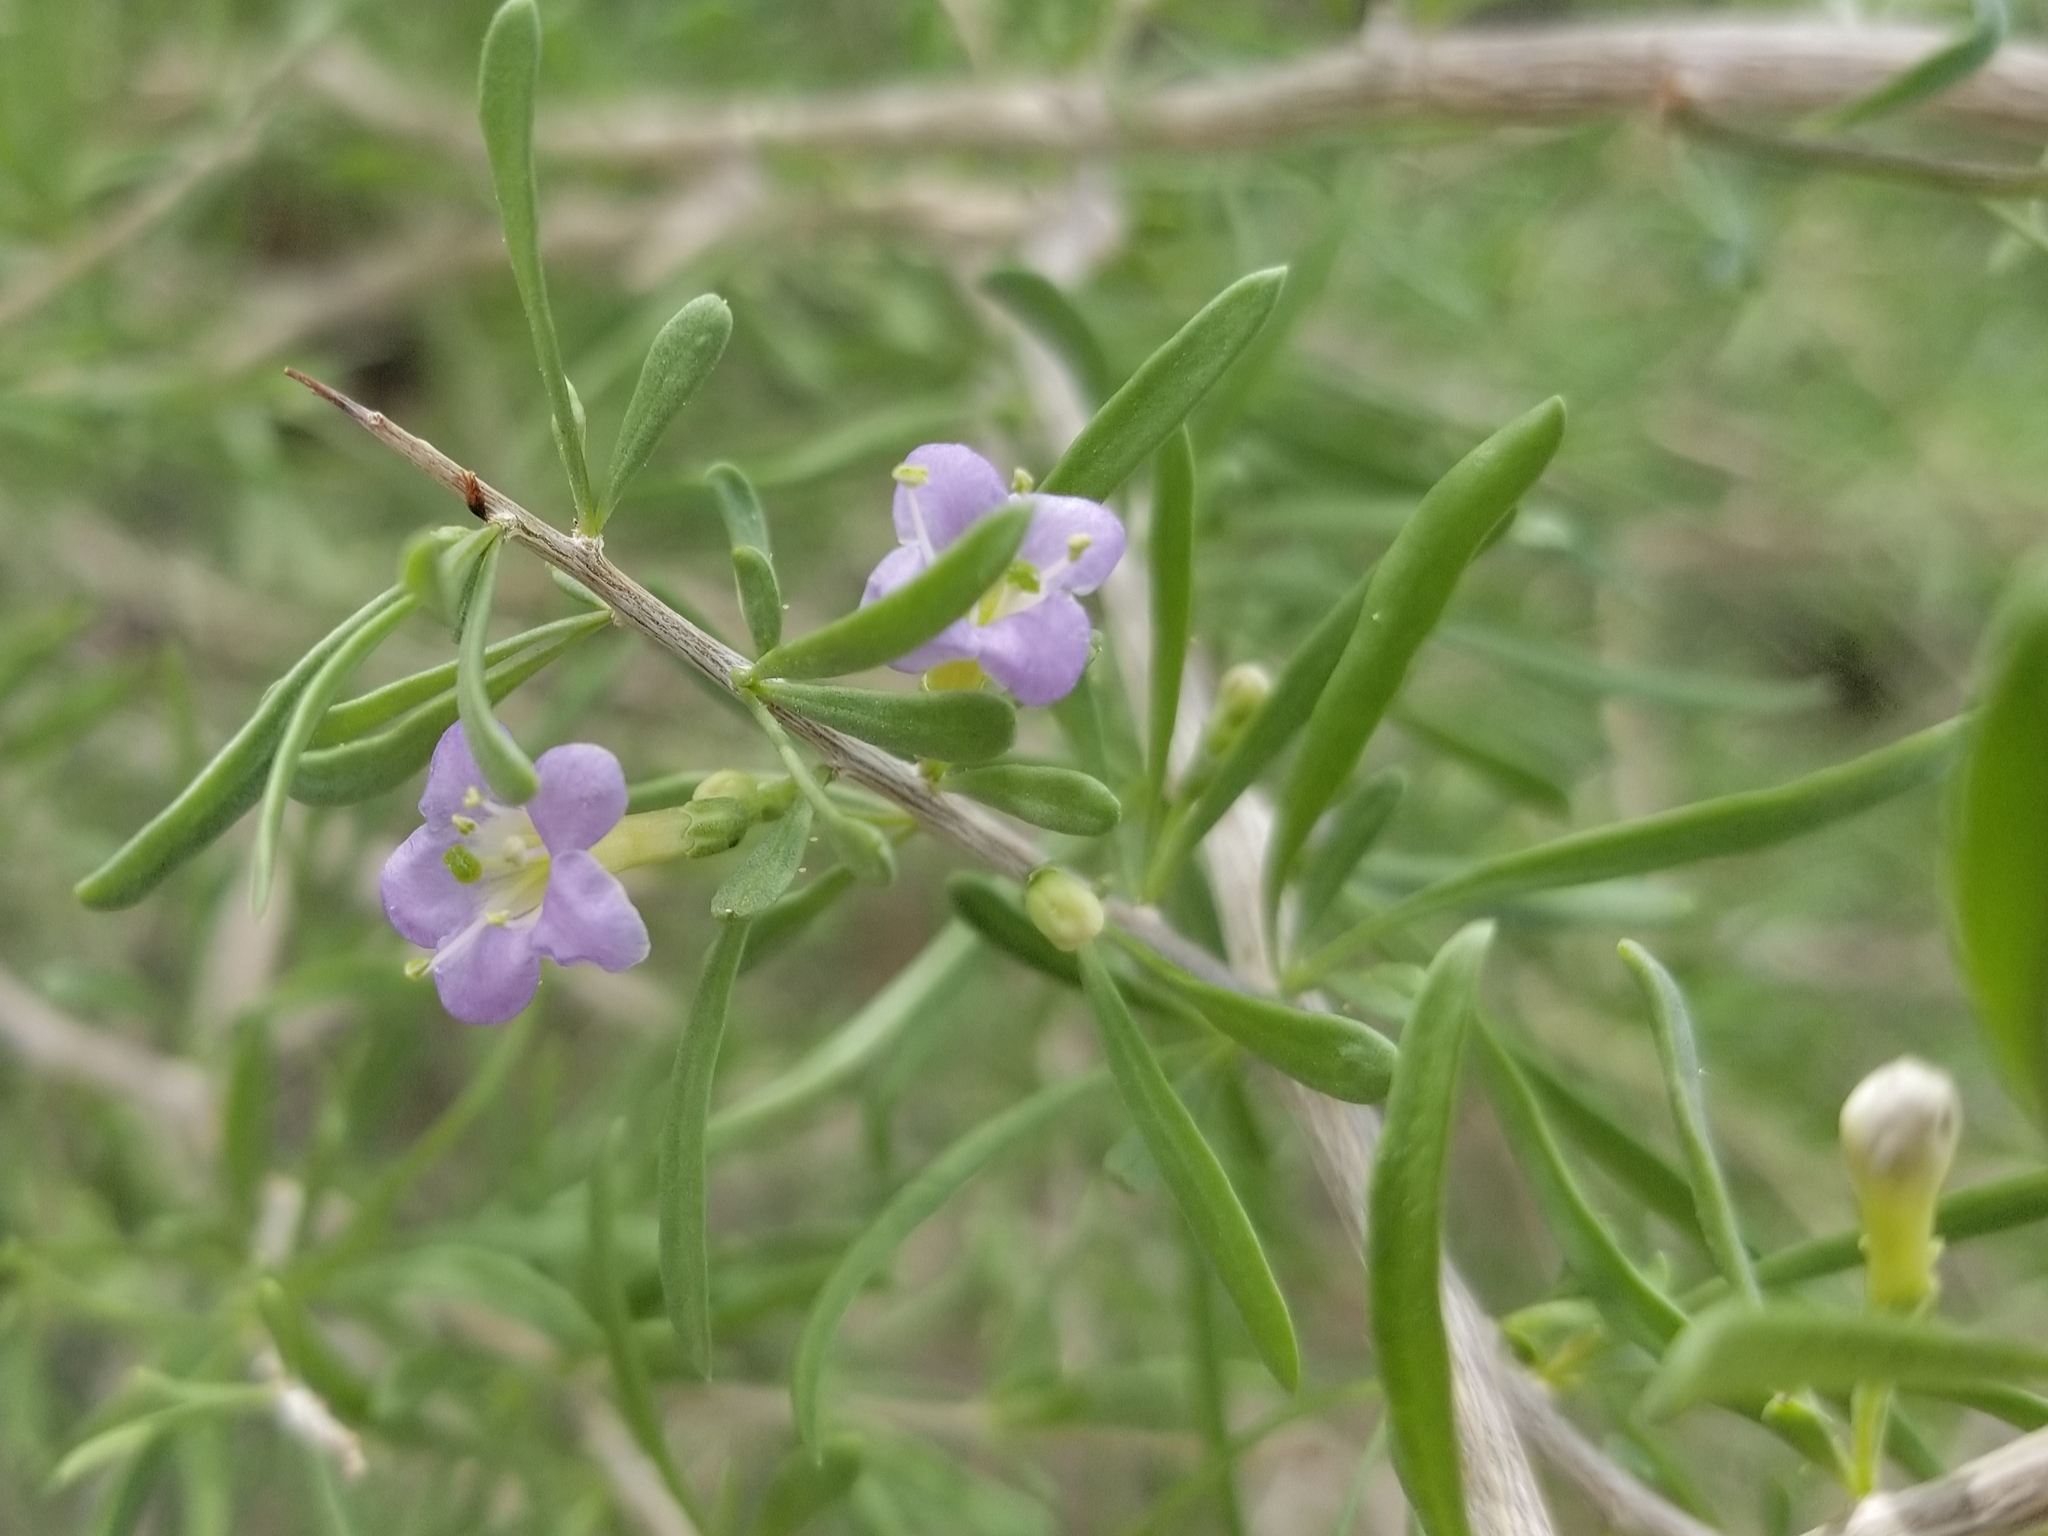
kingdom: Plantae
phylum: Tracheophyta
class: Magnoliopsida
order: Solanales
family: Solanaceae
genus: Lycium
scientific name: Lycium andersonii
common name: Water-jacket
